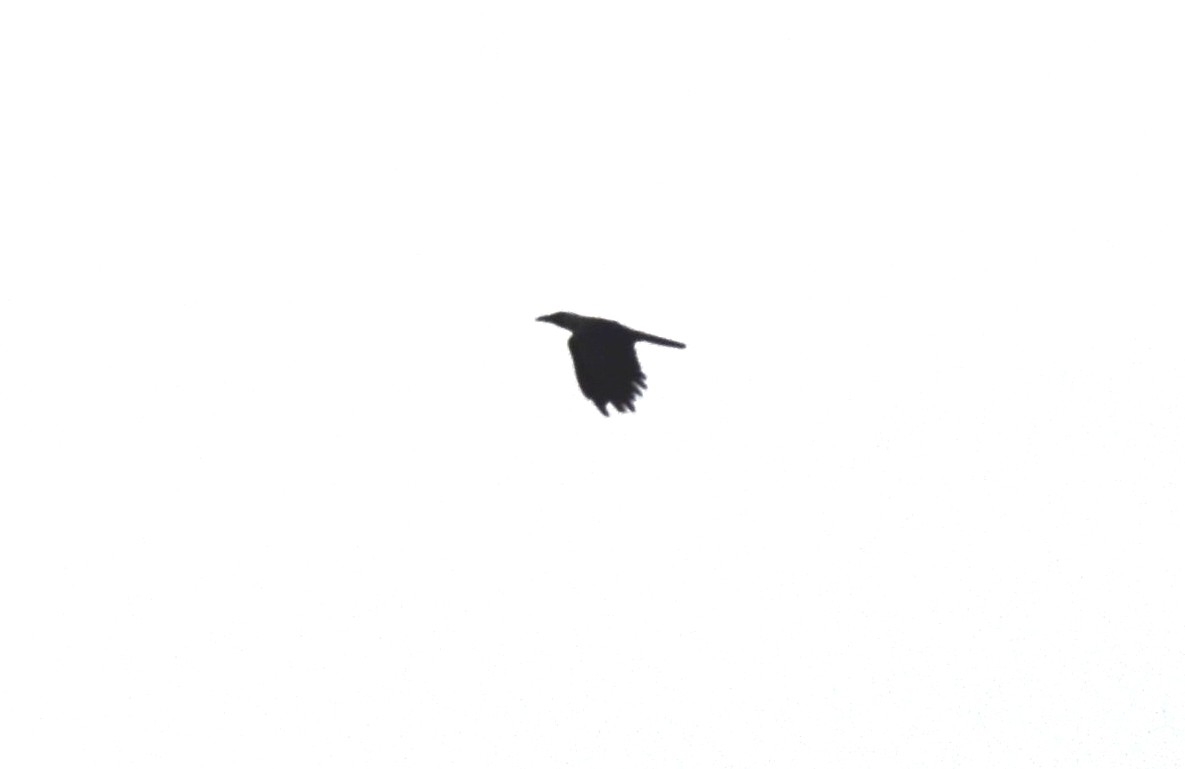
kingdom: Animalia
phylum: Chordata
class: Aves
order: Passeriformes
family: Corvidae
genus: Corvus
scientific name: Corvus splendens
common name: House crow
